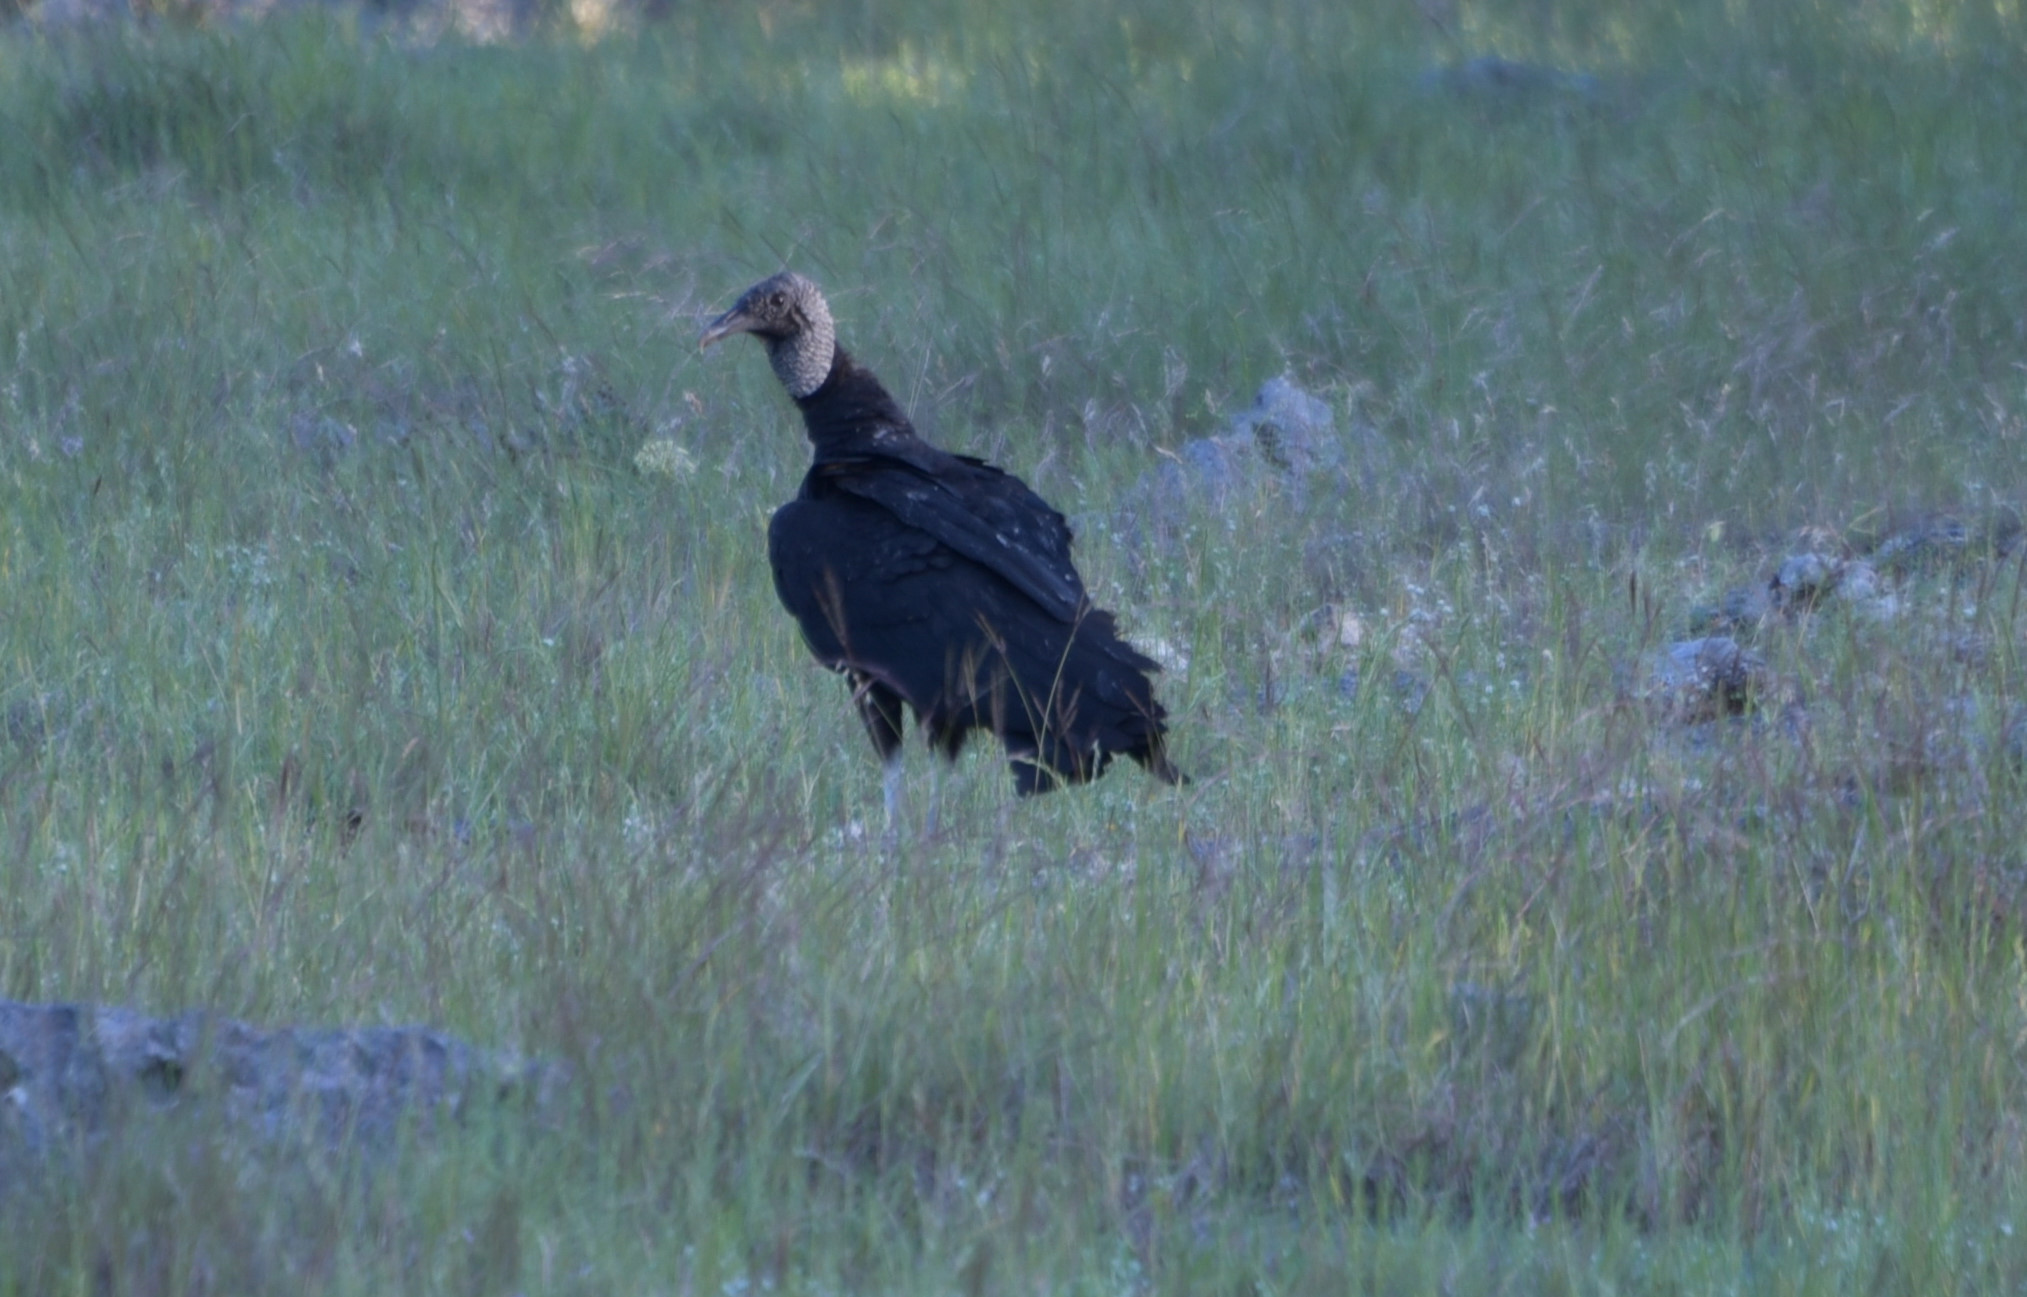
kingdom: Animalia
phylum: Chordata
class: Aves
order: Accipitriformes
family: Cathartidae
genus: Coragyps
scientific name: Coragyps atratus
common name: Black vulture
